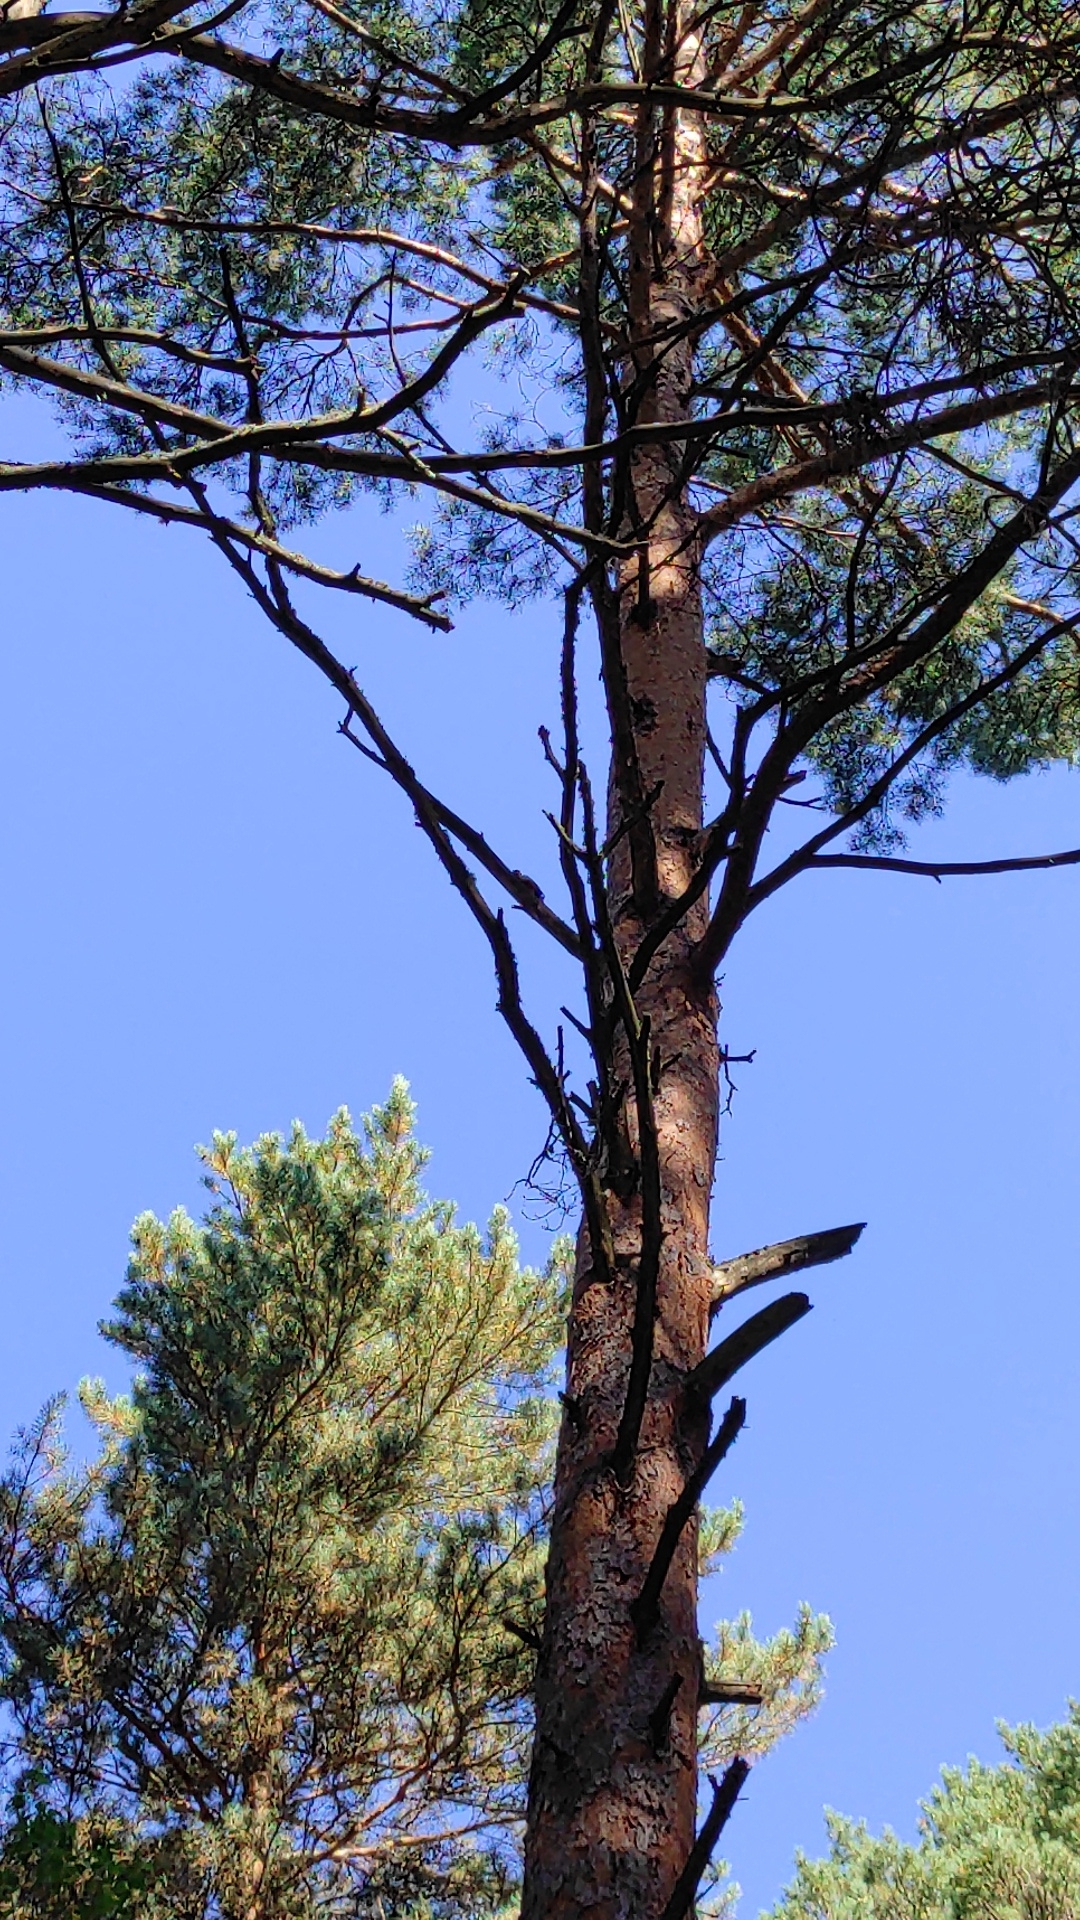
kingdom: Plantae
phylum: Tracheophyta
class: Pinopsida
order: Pinales
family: Pinaceae
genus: Pinus
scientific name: Pinus sylvestris
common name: Scots pine
